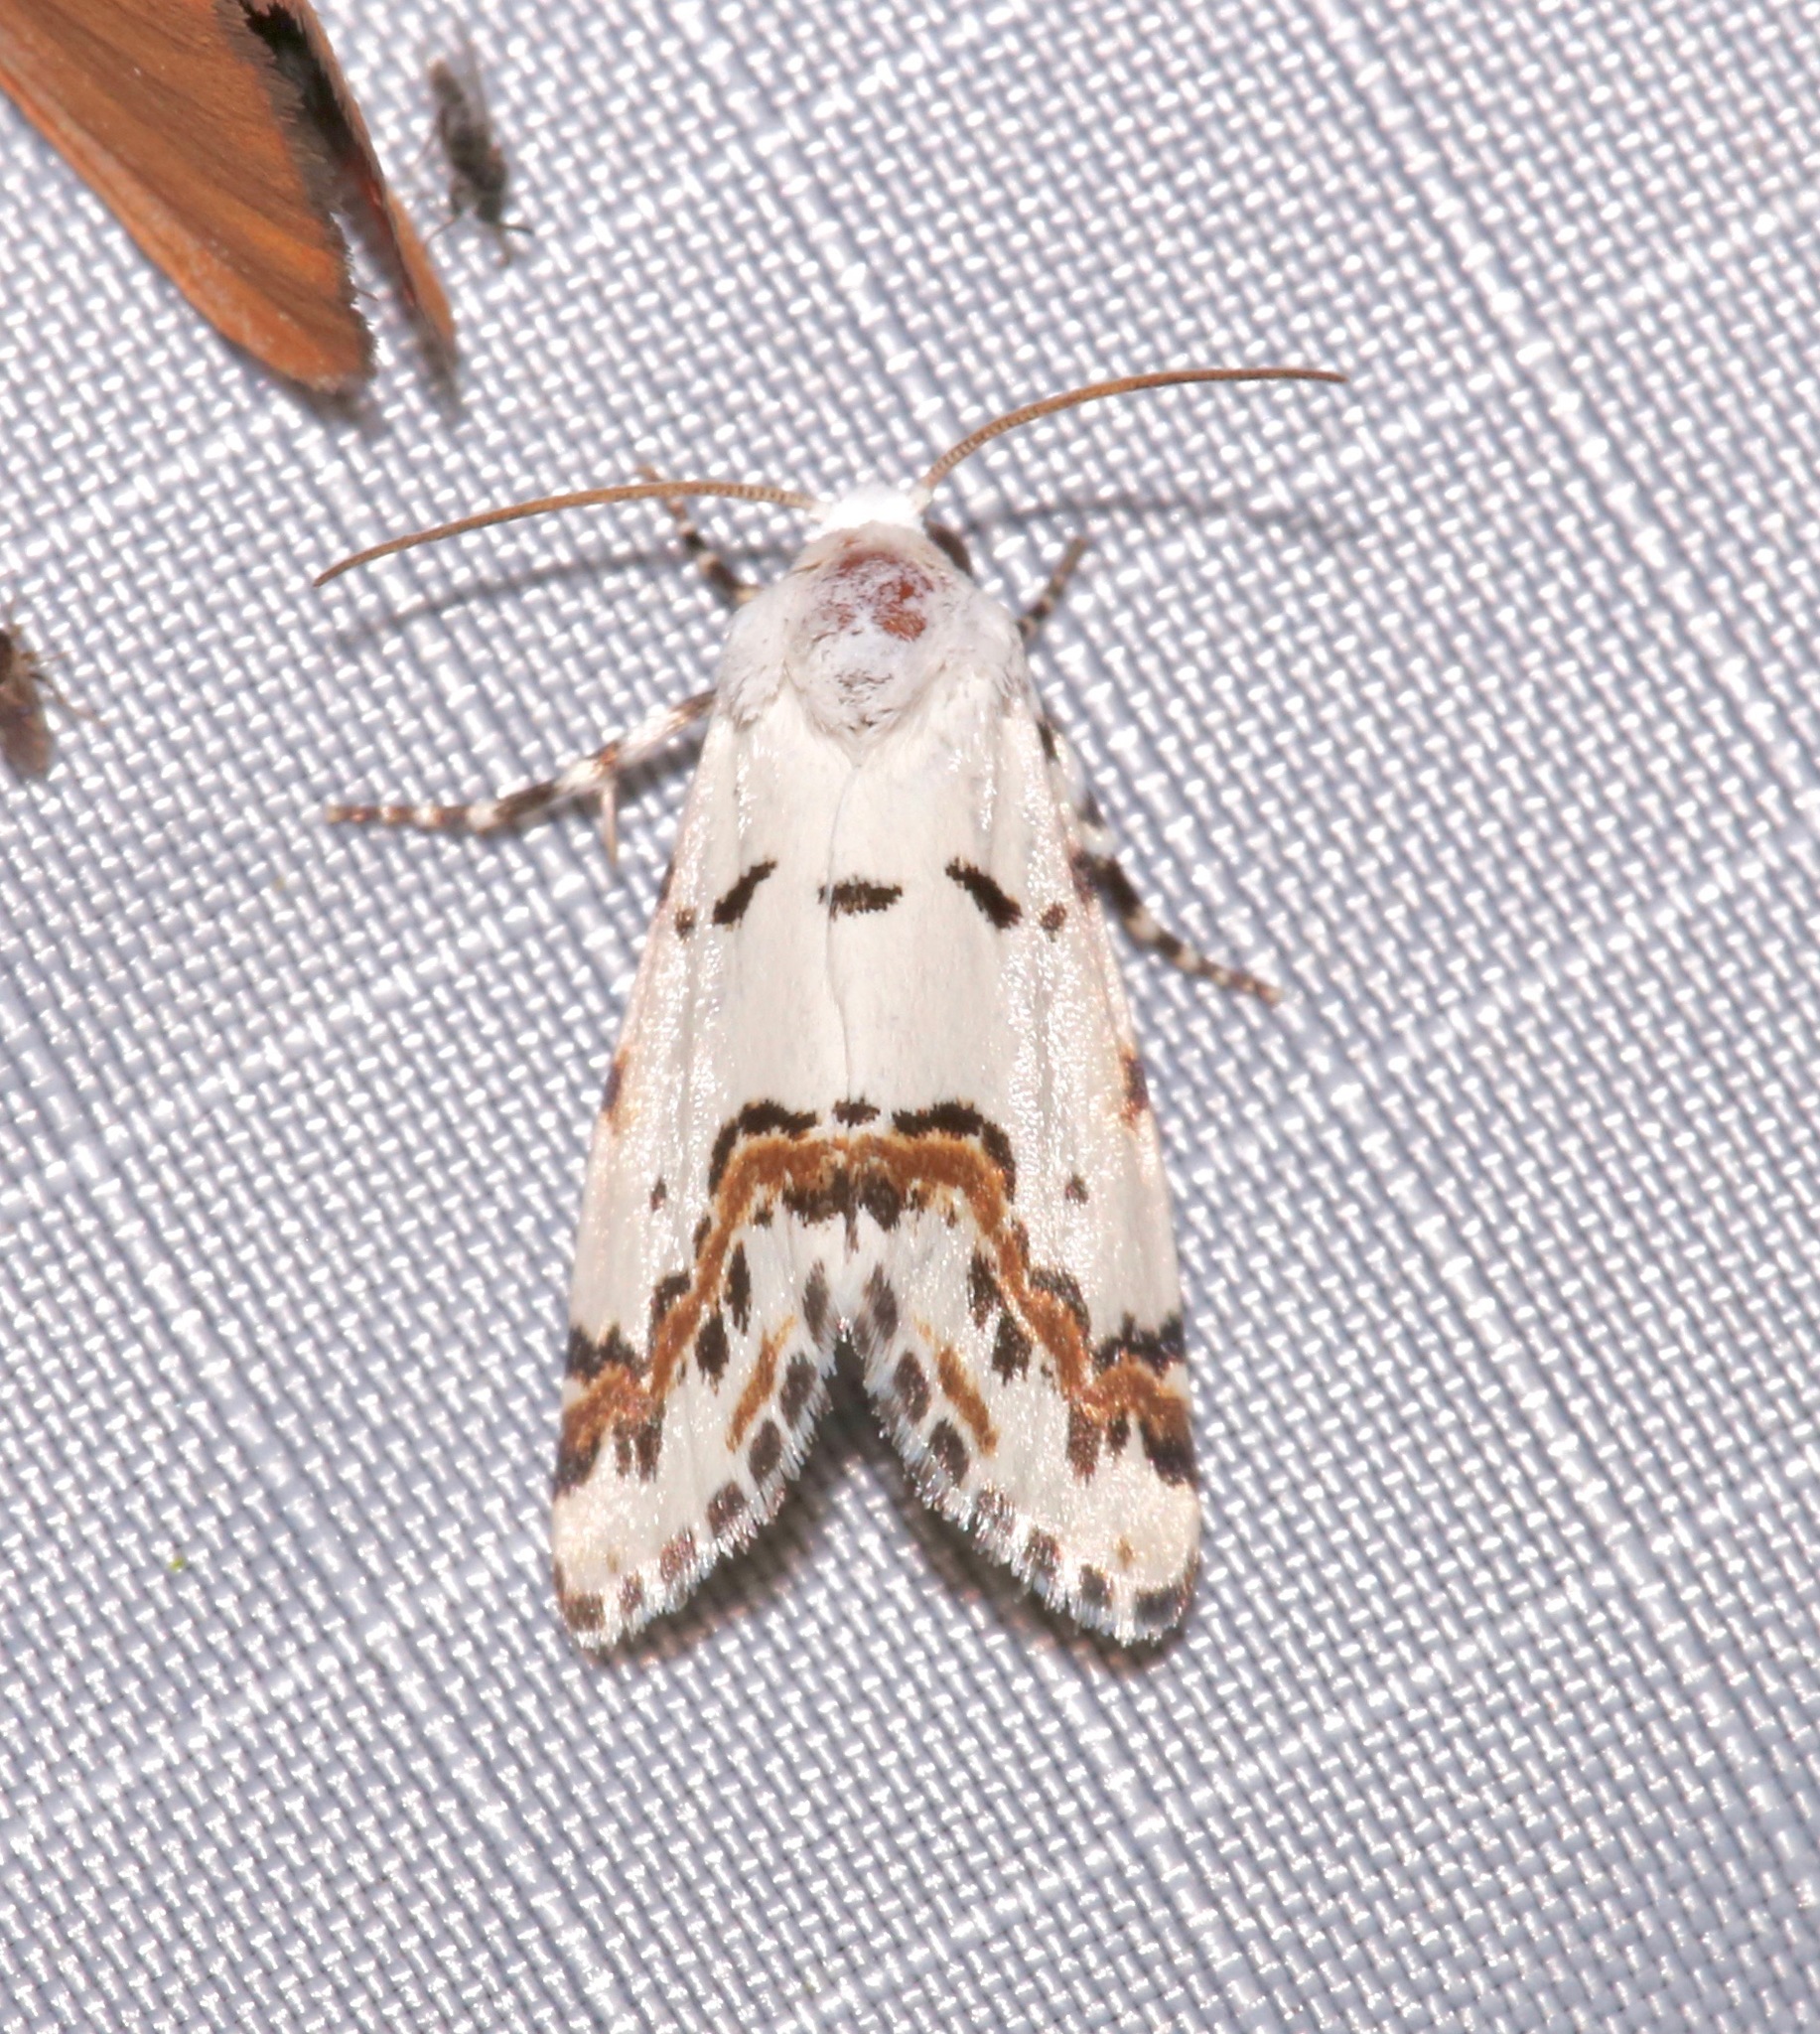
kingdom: Animalia
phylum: Arthropoda
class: Insecta
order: Lepidoptera
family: Noctuidae
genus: Grotella
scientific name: Grotella tricolor
